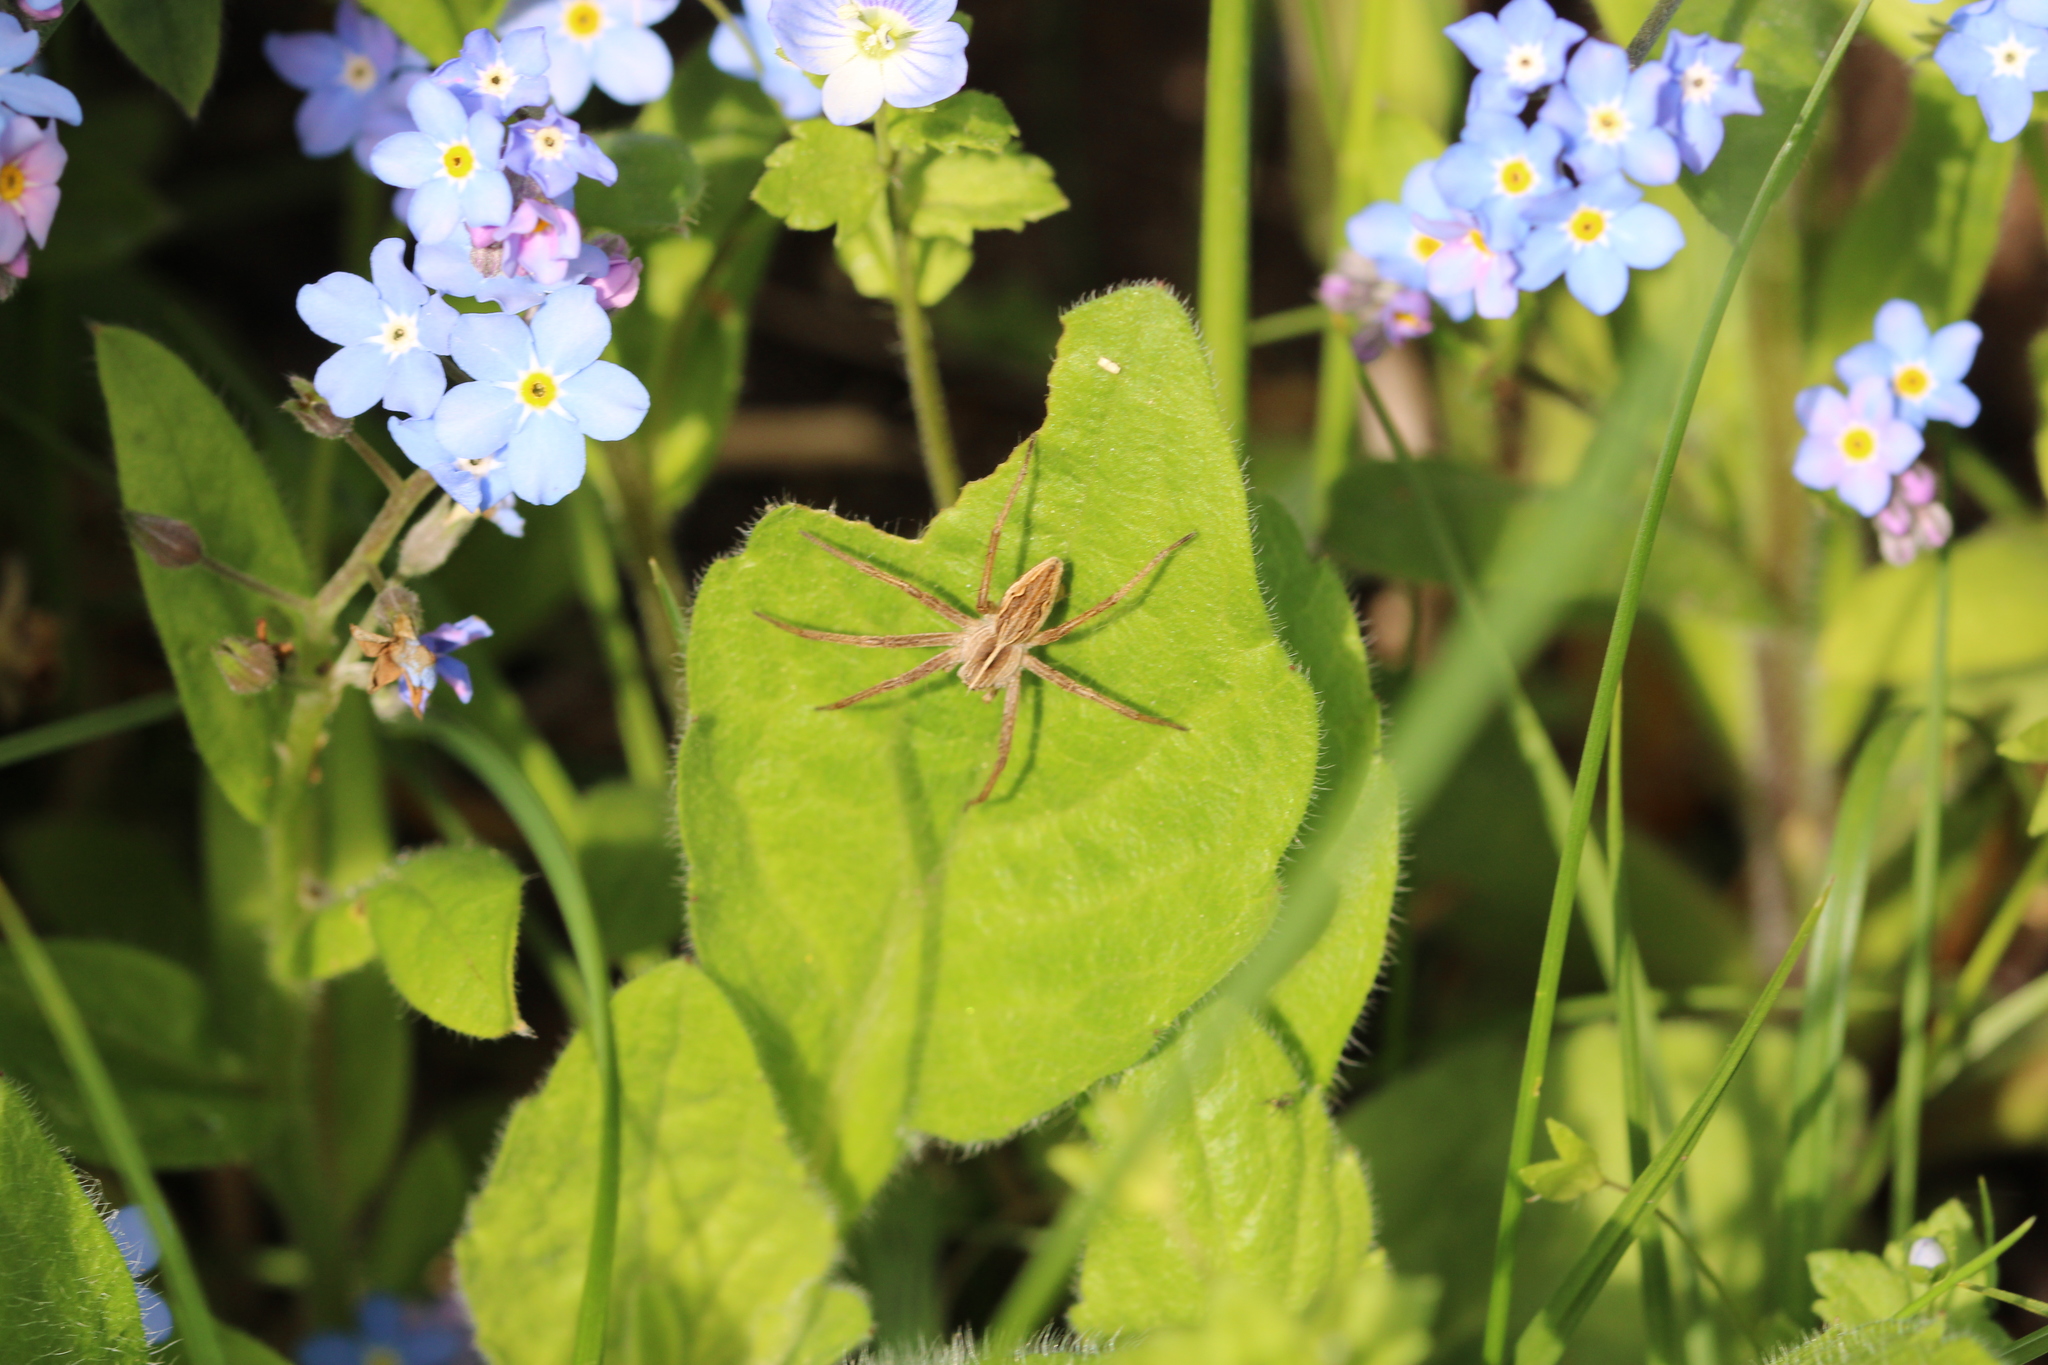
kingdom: Animalia
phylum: Arthropoda
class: Arachnida
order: Araneae
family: Pisauridae
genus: Pisaura
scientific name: Pisaura mirabilis
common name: Tent spider
